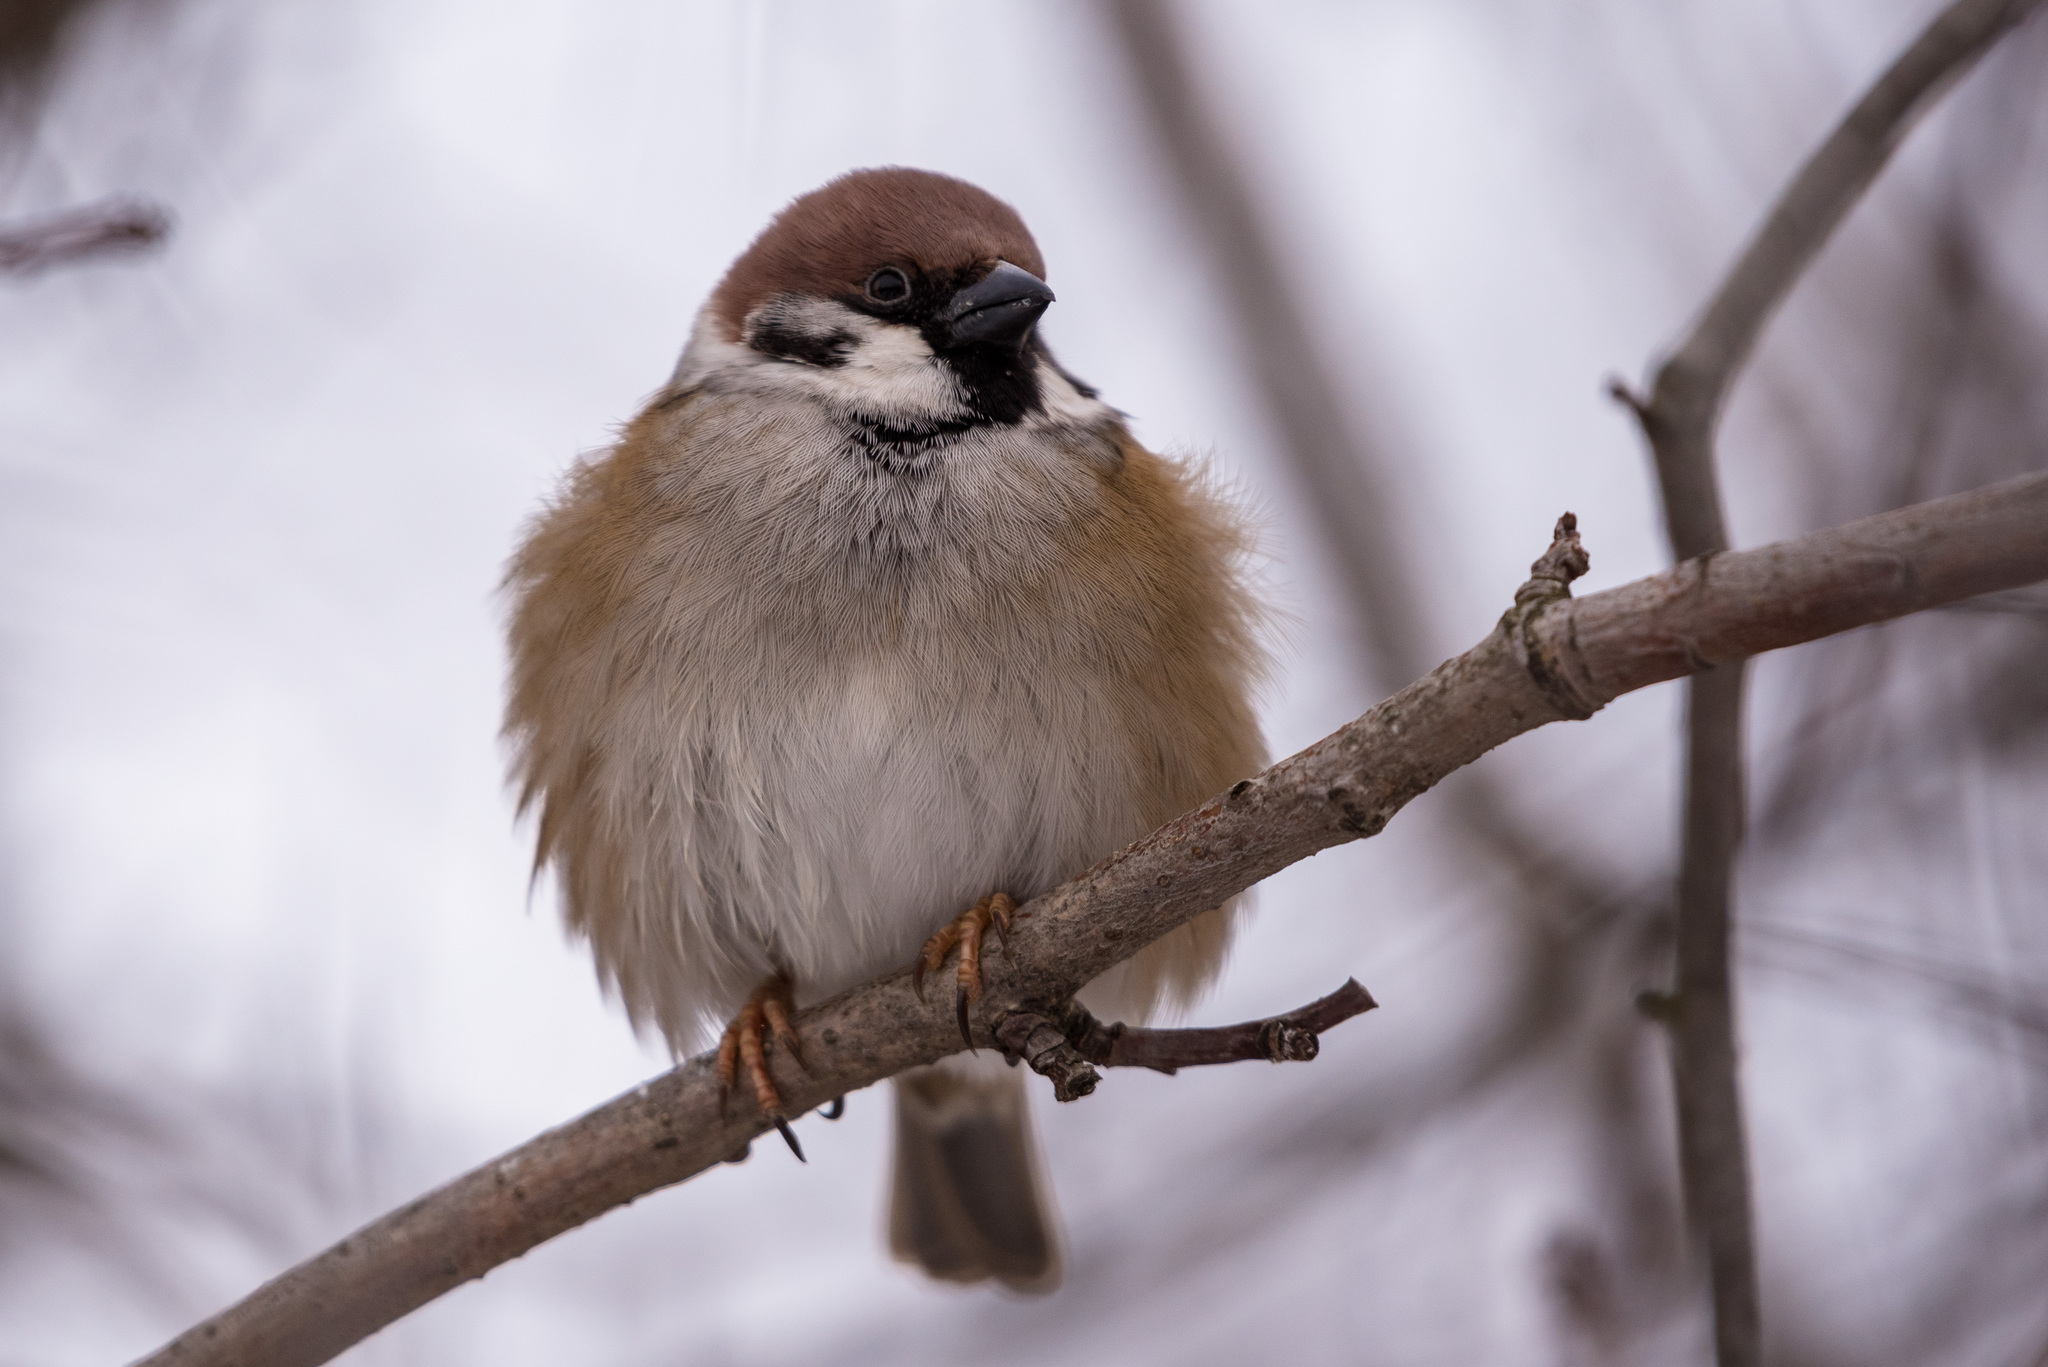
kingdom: Animalia
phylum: Chordata
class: Aves
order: Passeriformes
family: Passeridae
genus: Passer
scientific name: Passer montanus
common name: Eurasian tree sparrow
